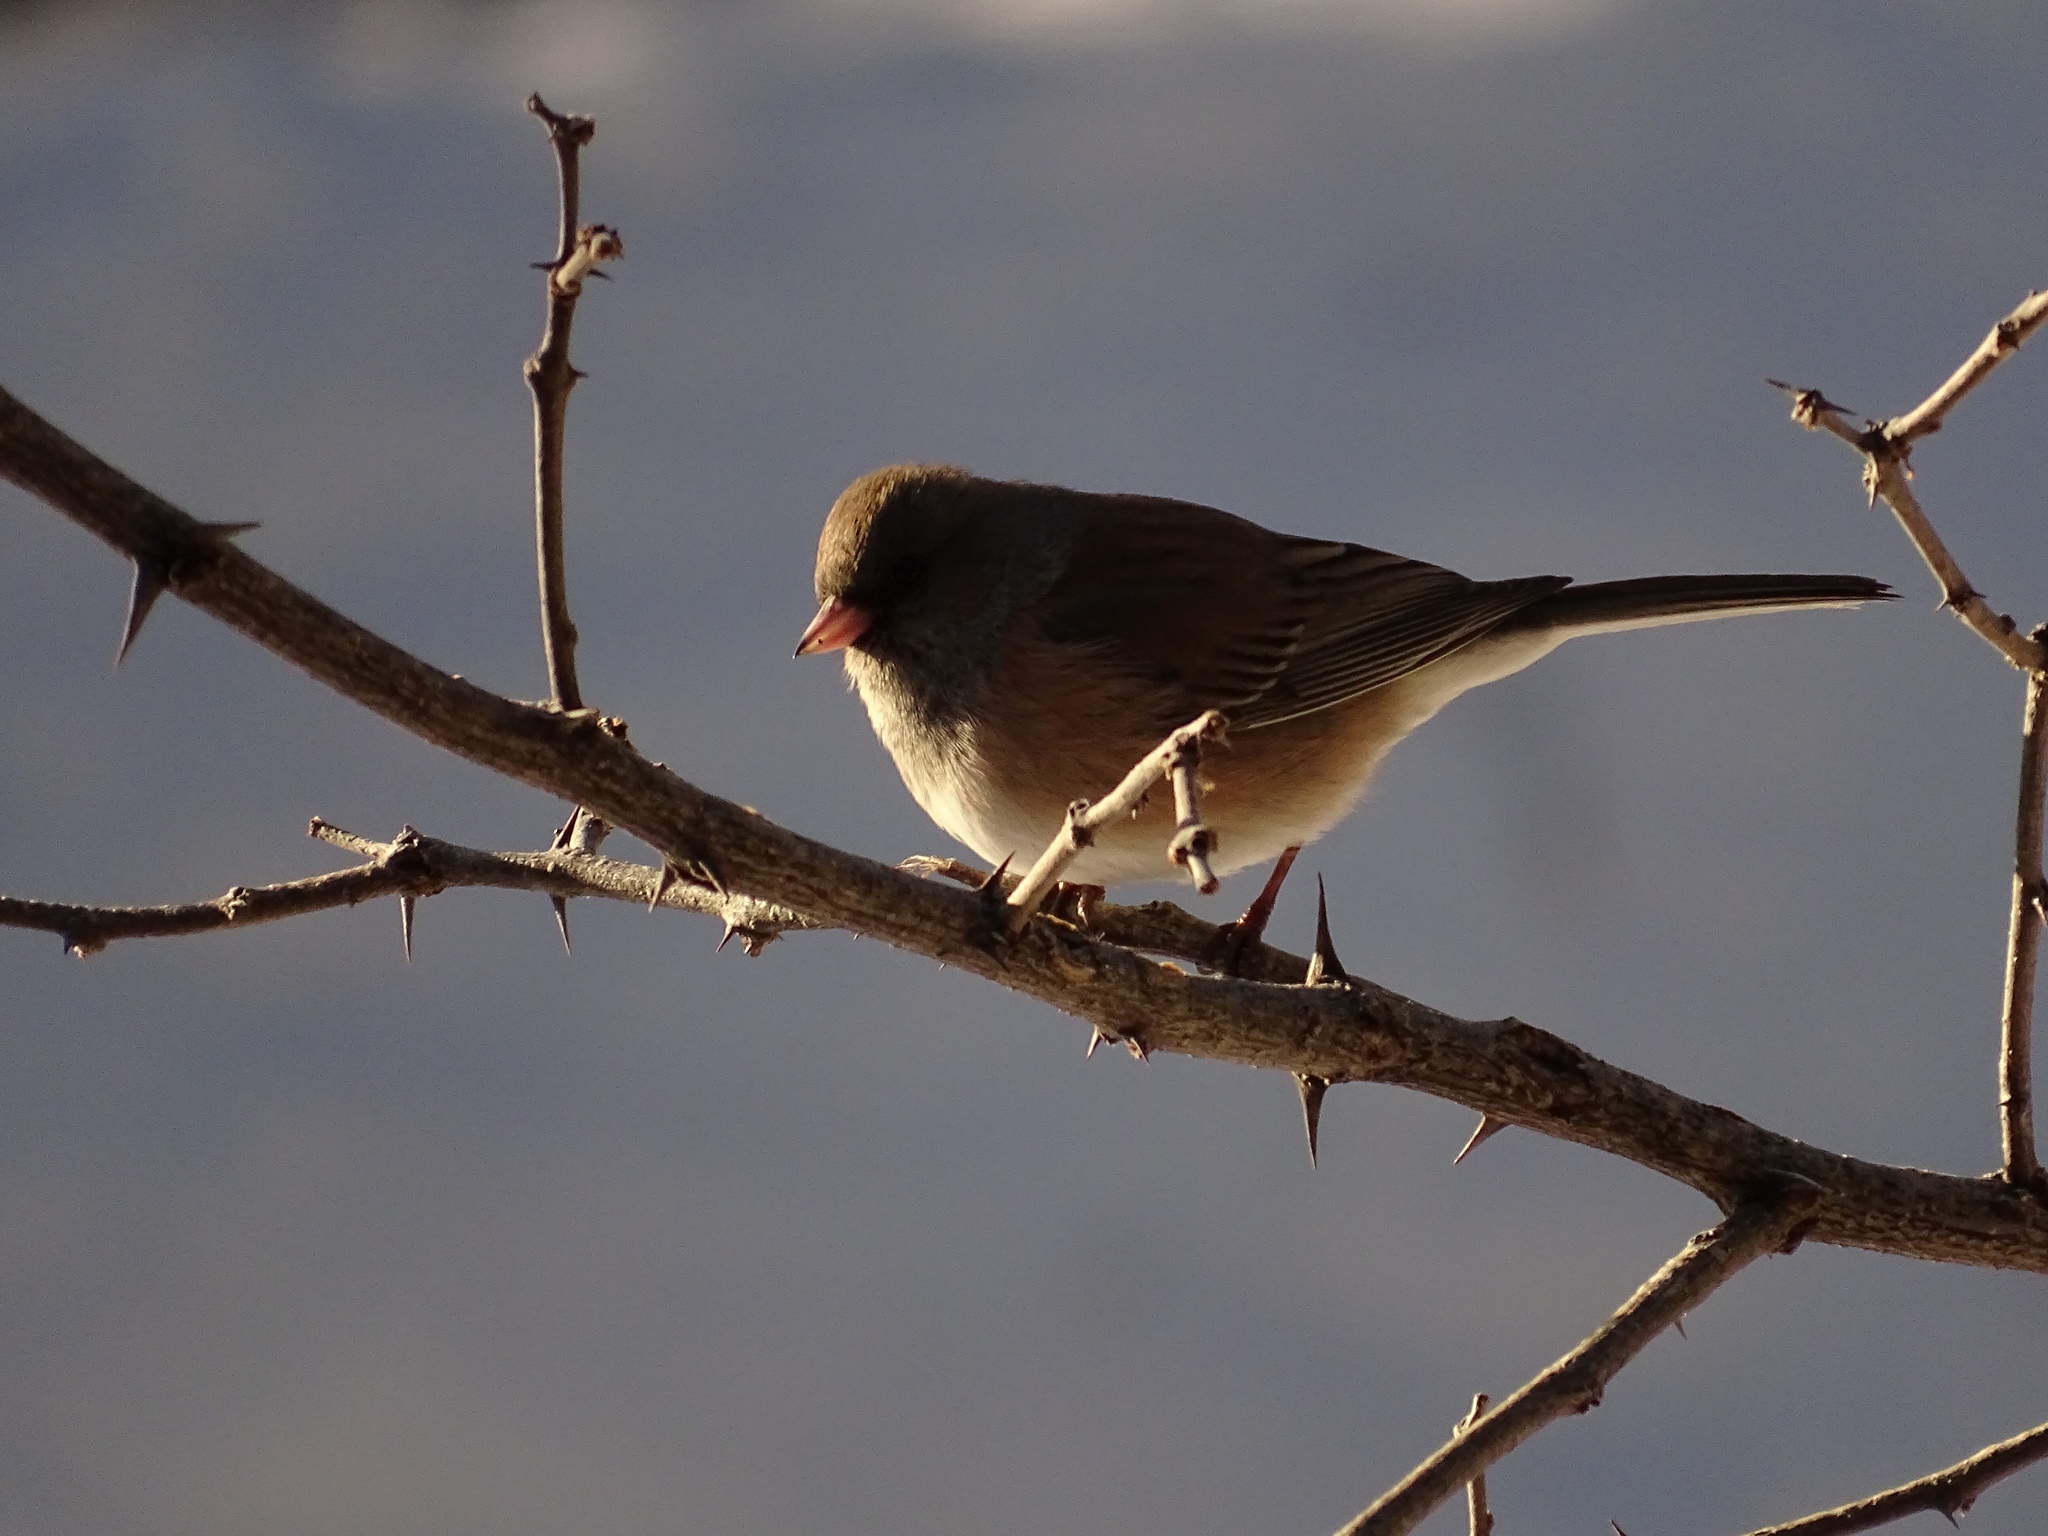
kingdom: Animalia
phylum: Chordata
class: Aves
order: Passeriformes
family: Passerellidae
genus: Junco
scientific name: Junco hyemalis
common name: Dark-eyed junco
